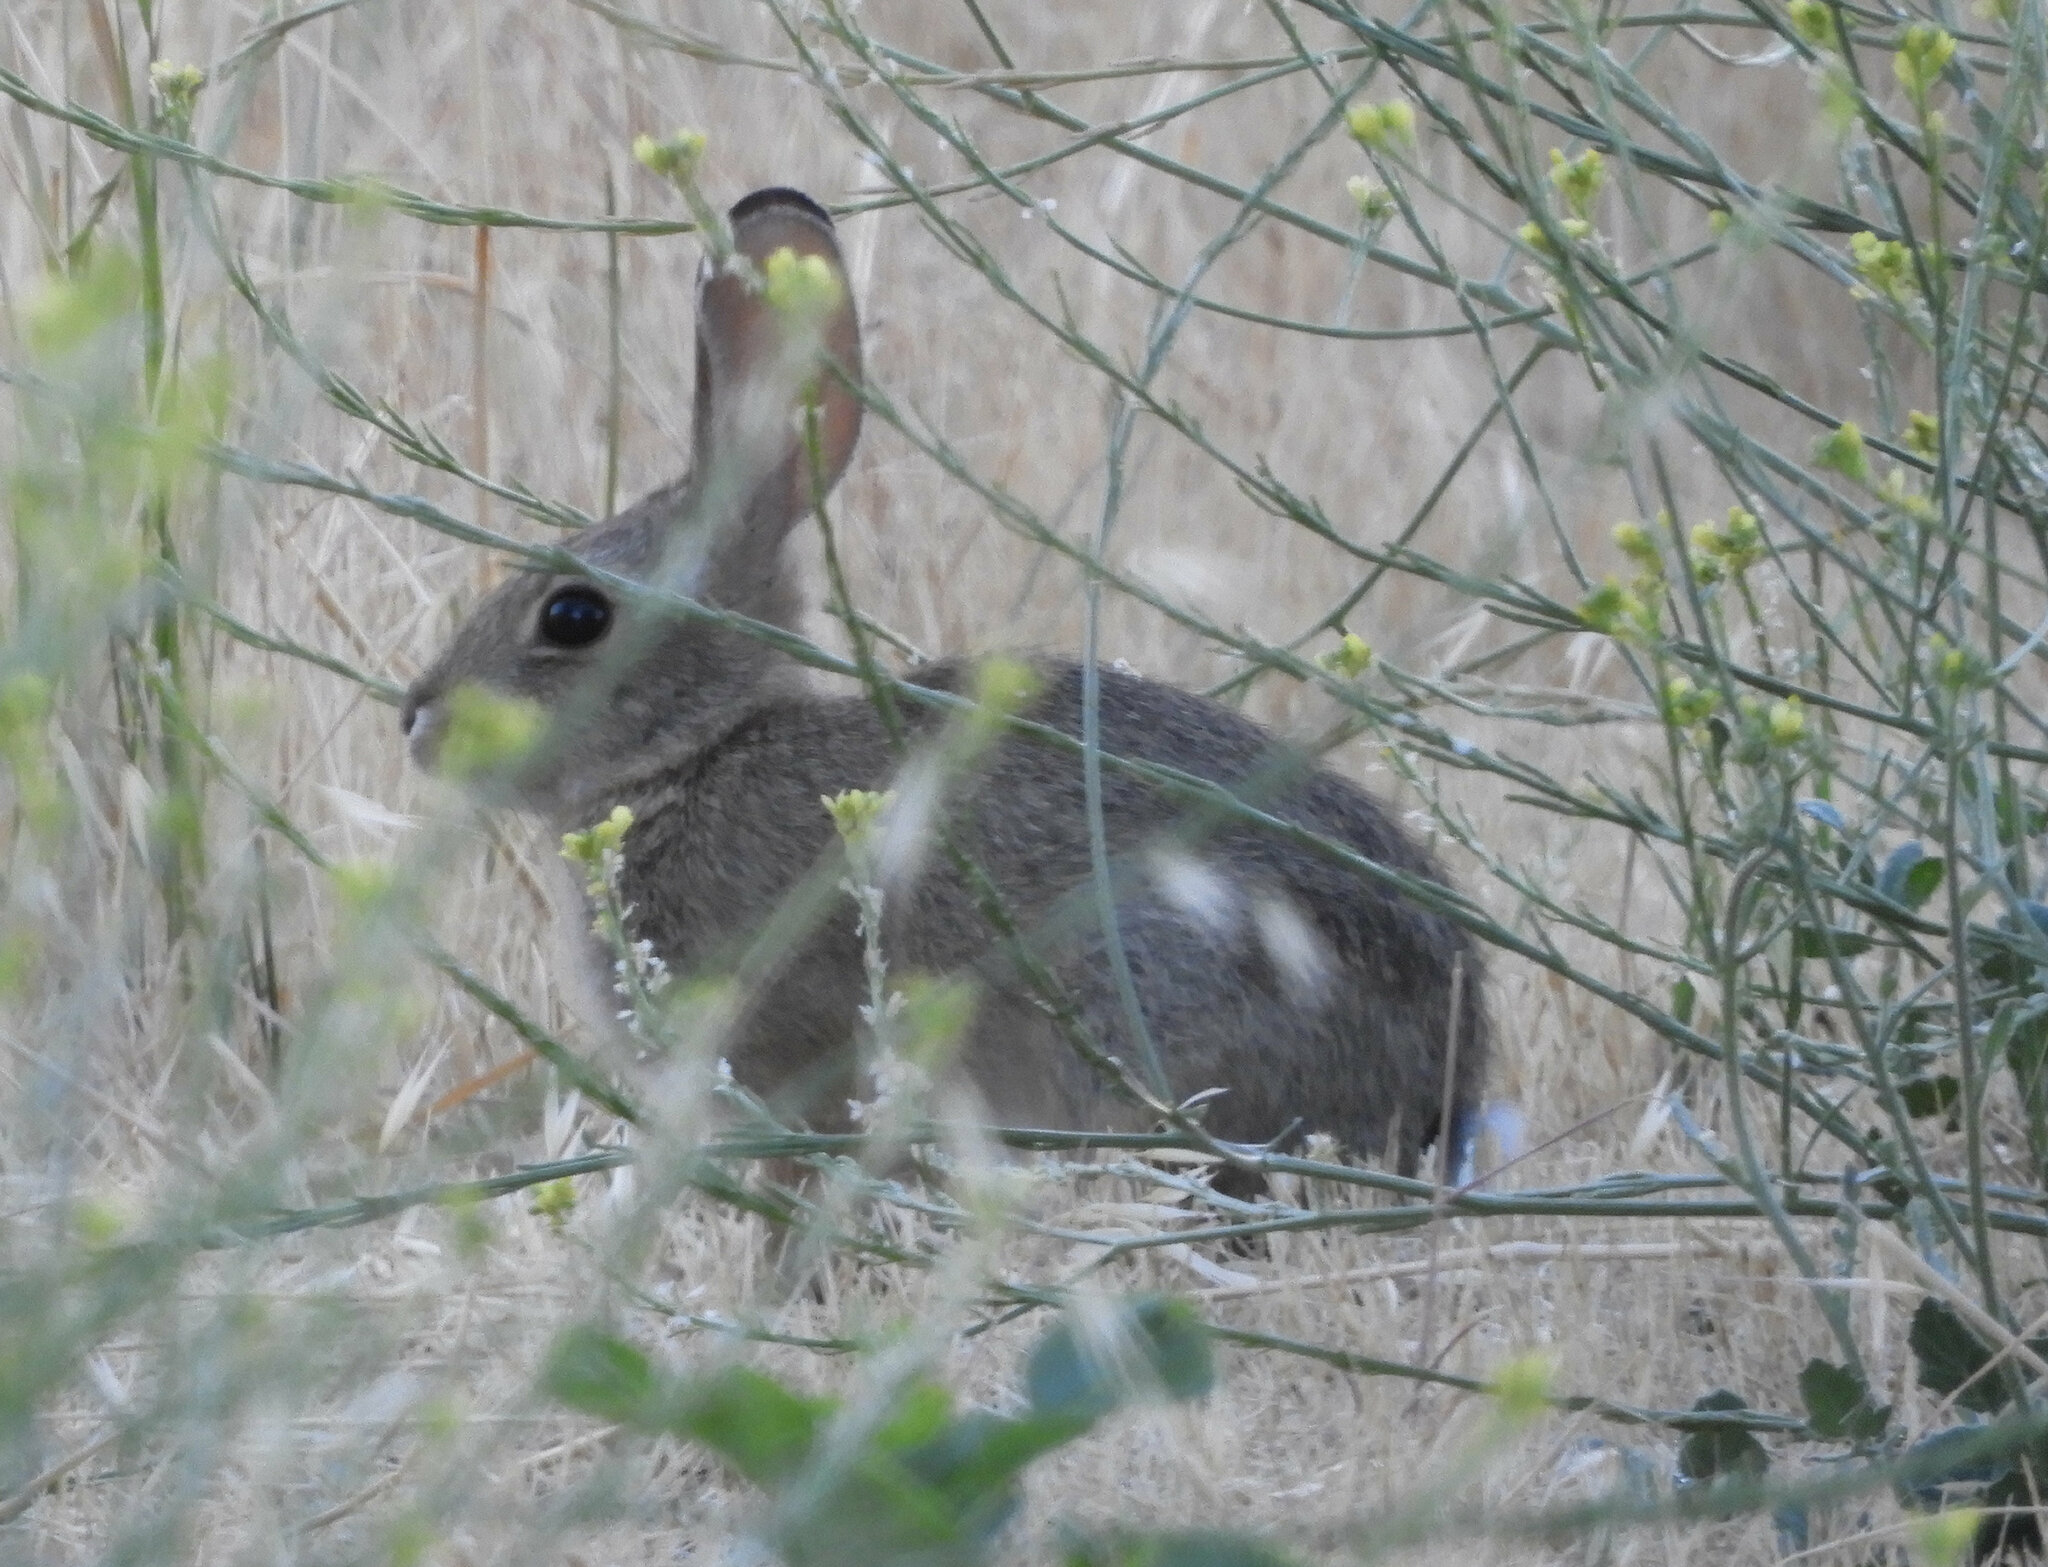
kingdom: Animalia
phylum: Chordata
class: Mammalia
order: Lagomorpha
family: Leporidae
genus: Sylvilagus
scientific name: Sylvilagus audubonii
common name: Desert cottontail
